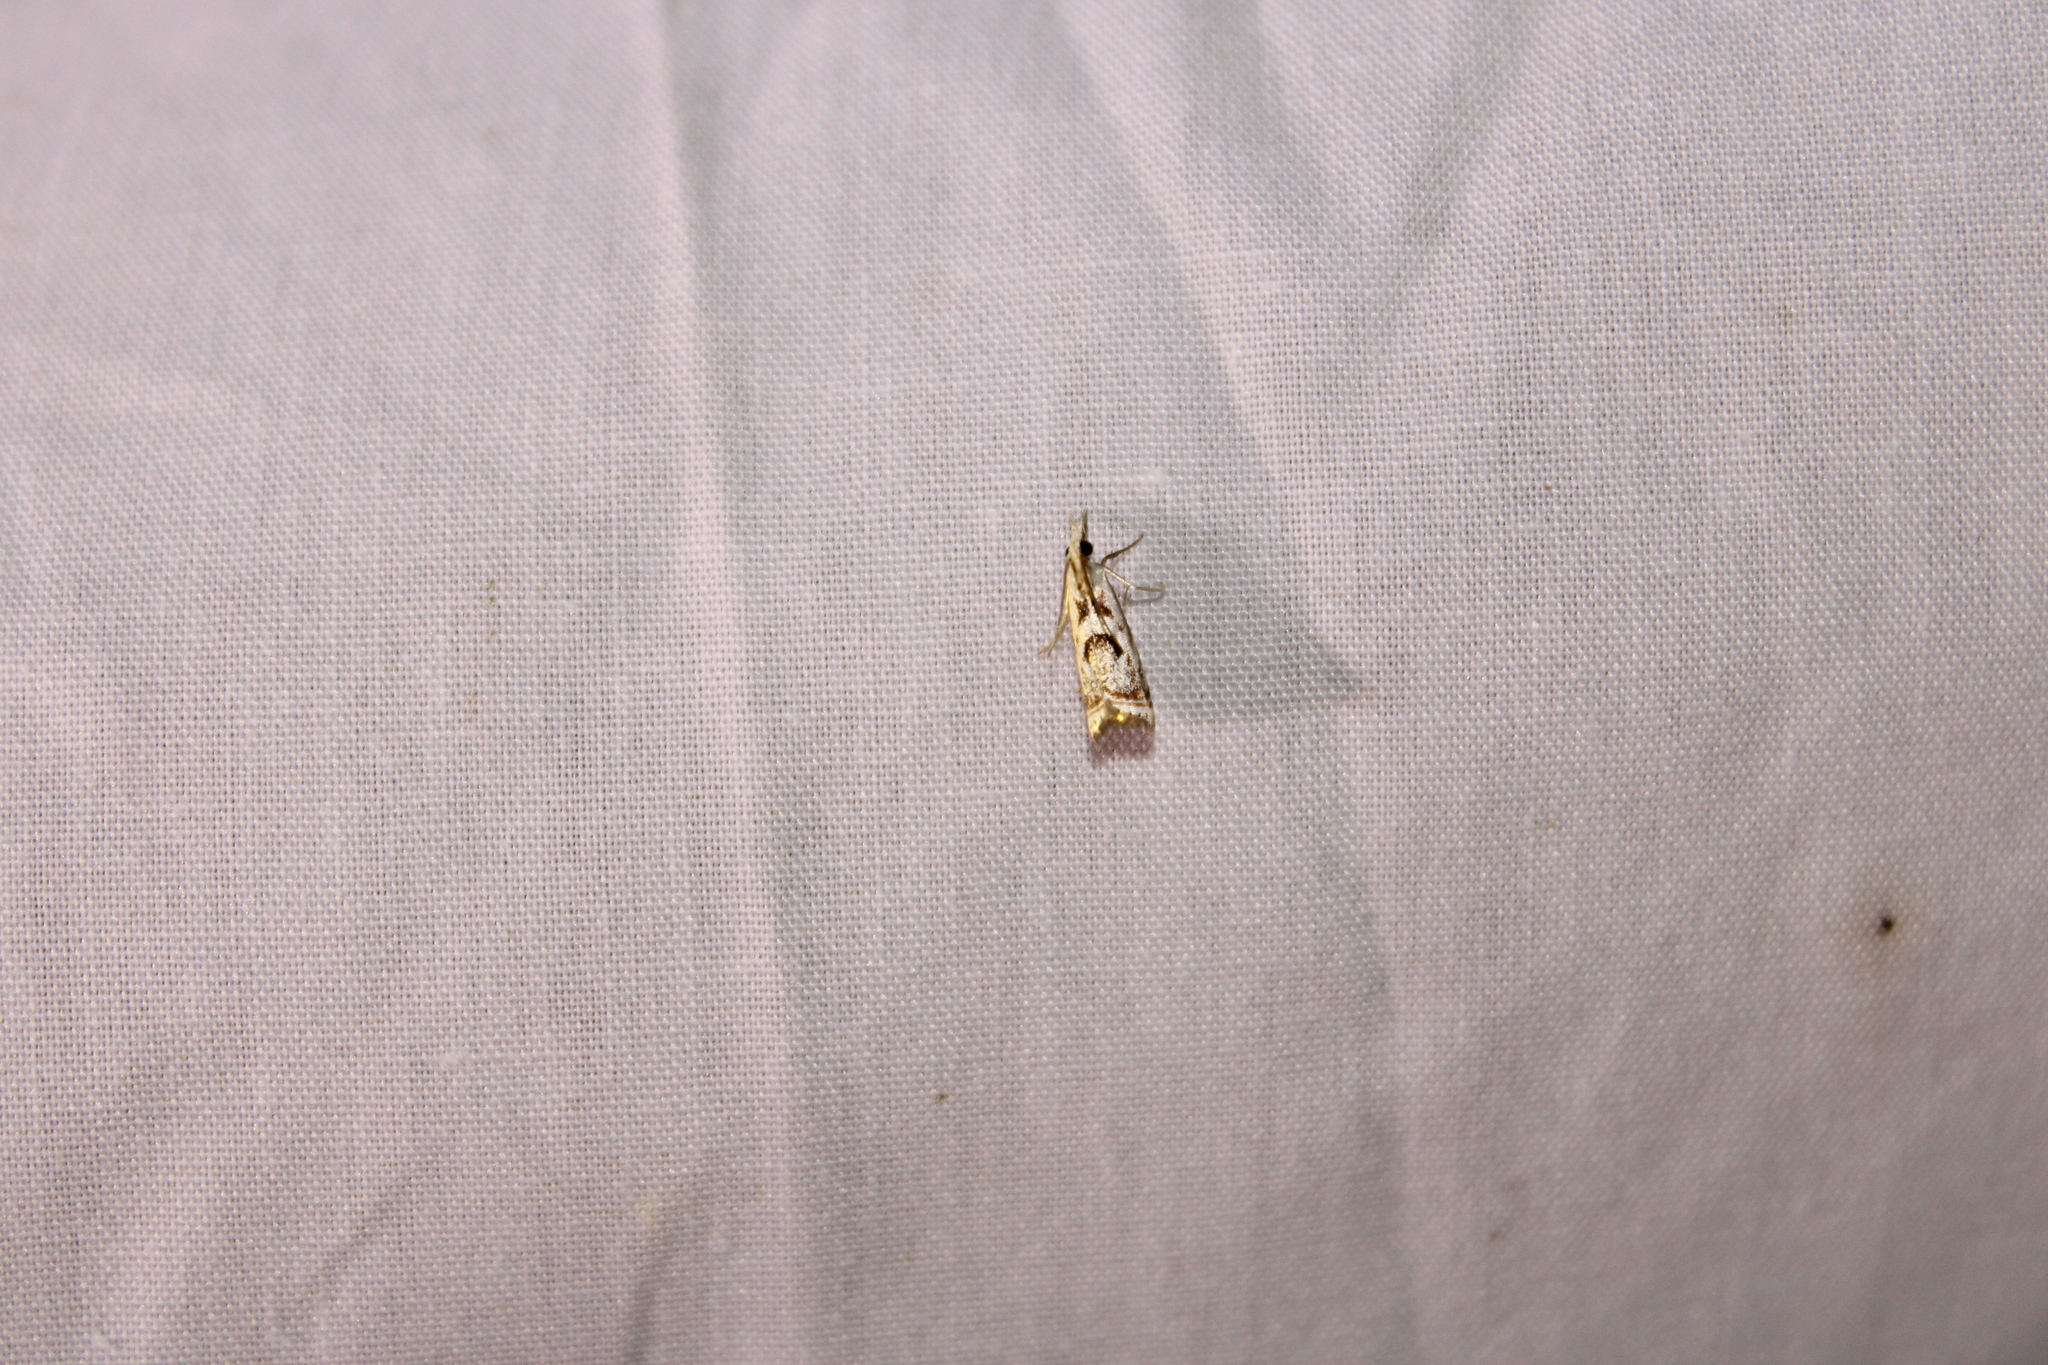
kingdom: Animalia
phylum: Arthropoda
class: Insecta
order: Lepidoptera
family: Crambidae
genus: Microcrambus
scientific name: Microcrambus elegans
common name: Elegant grass-veneer
